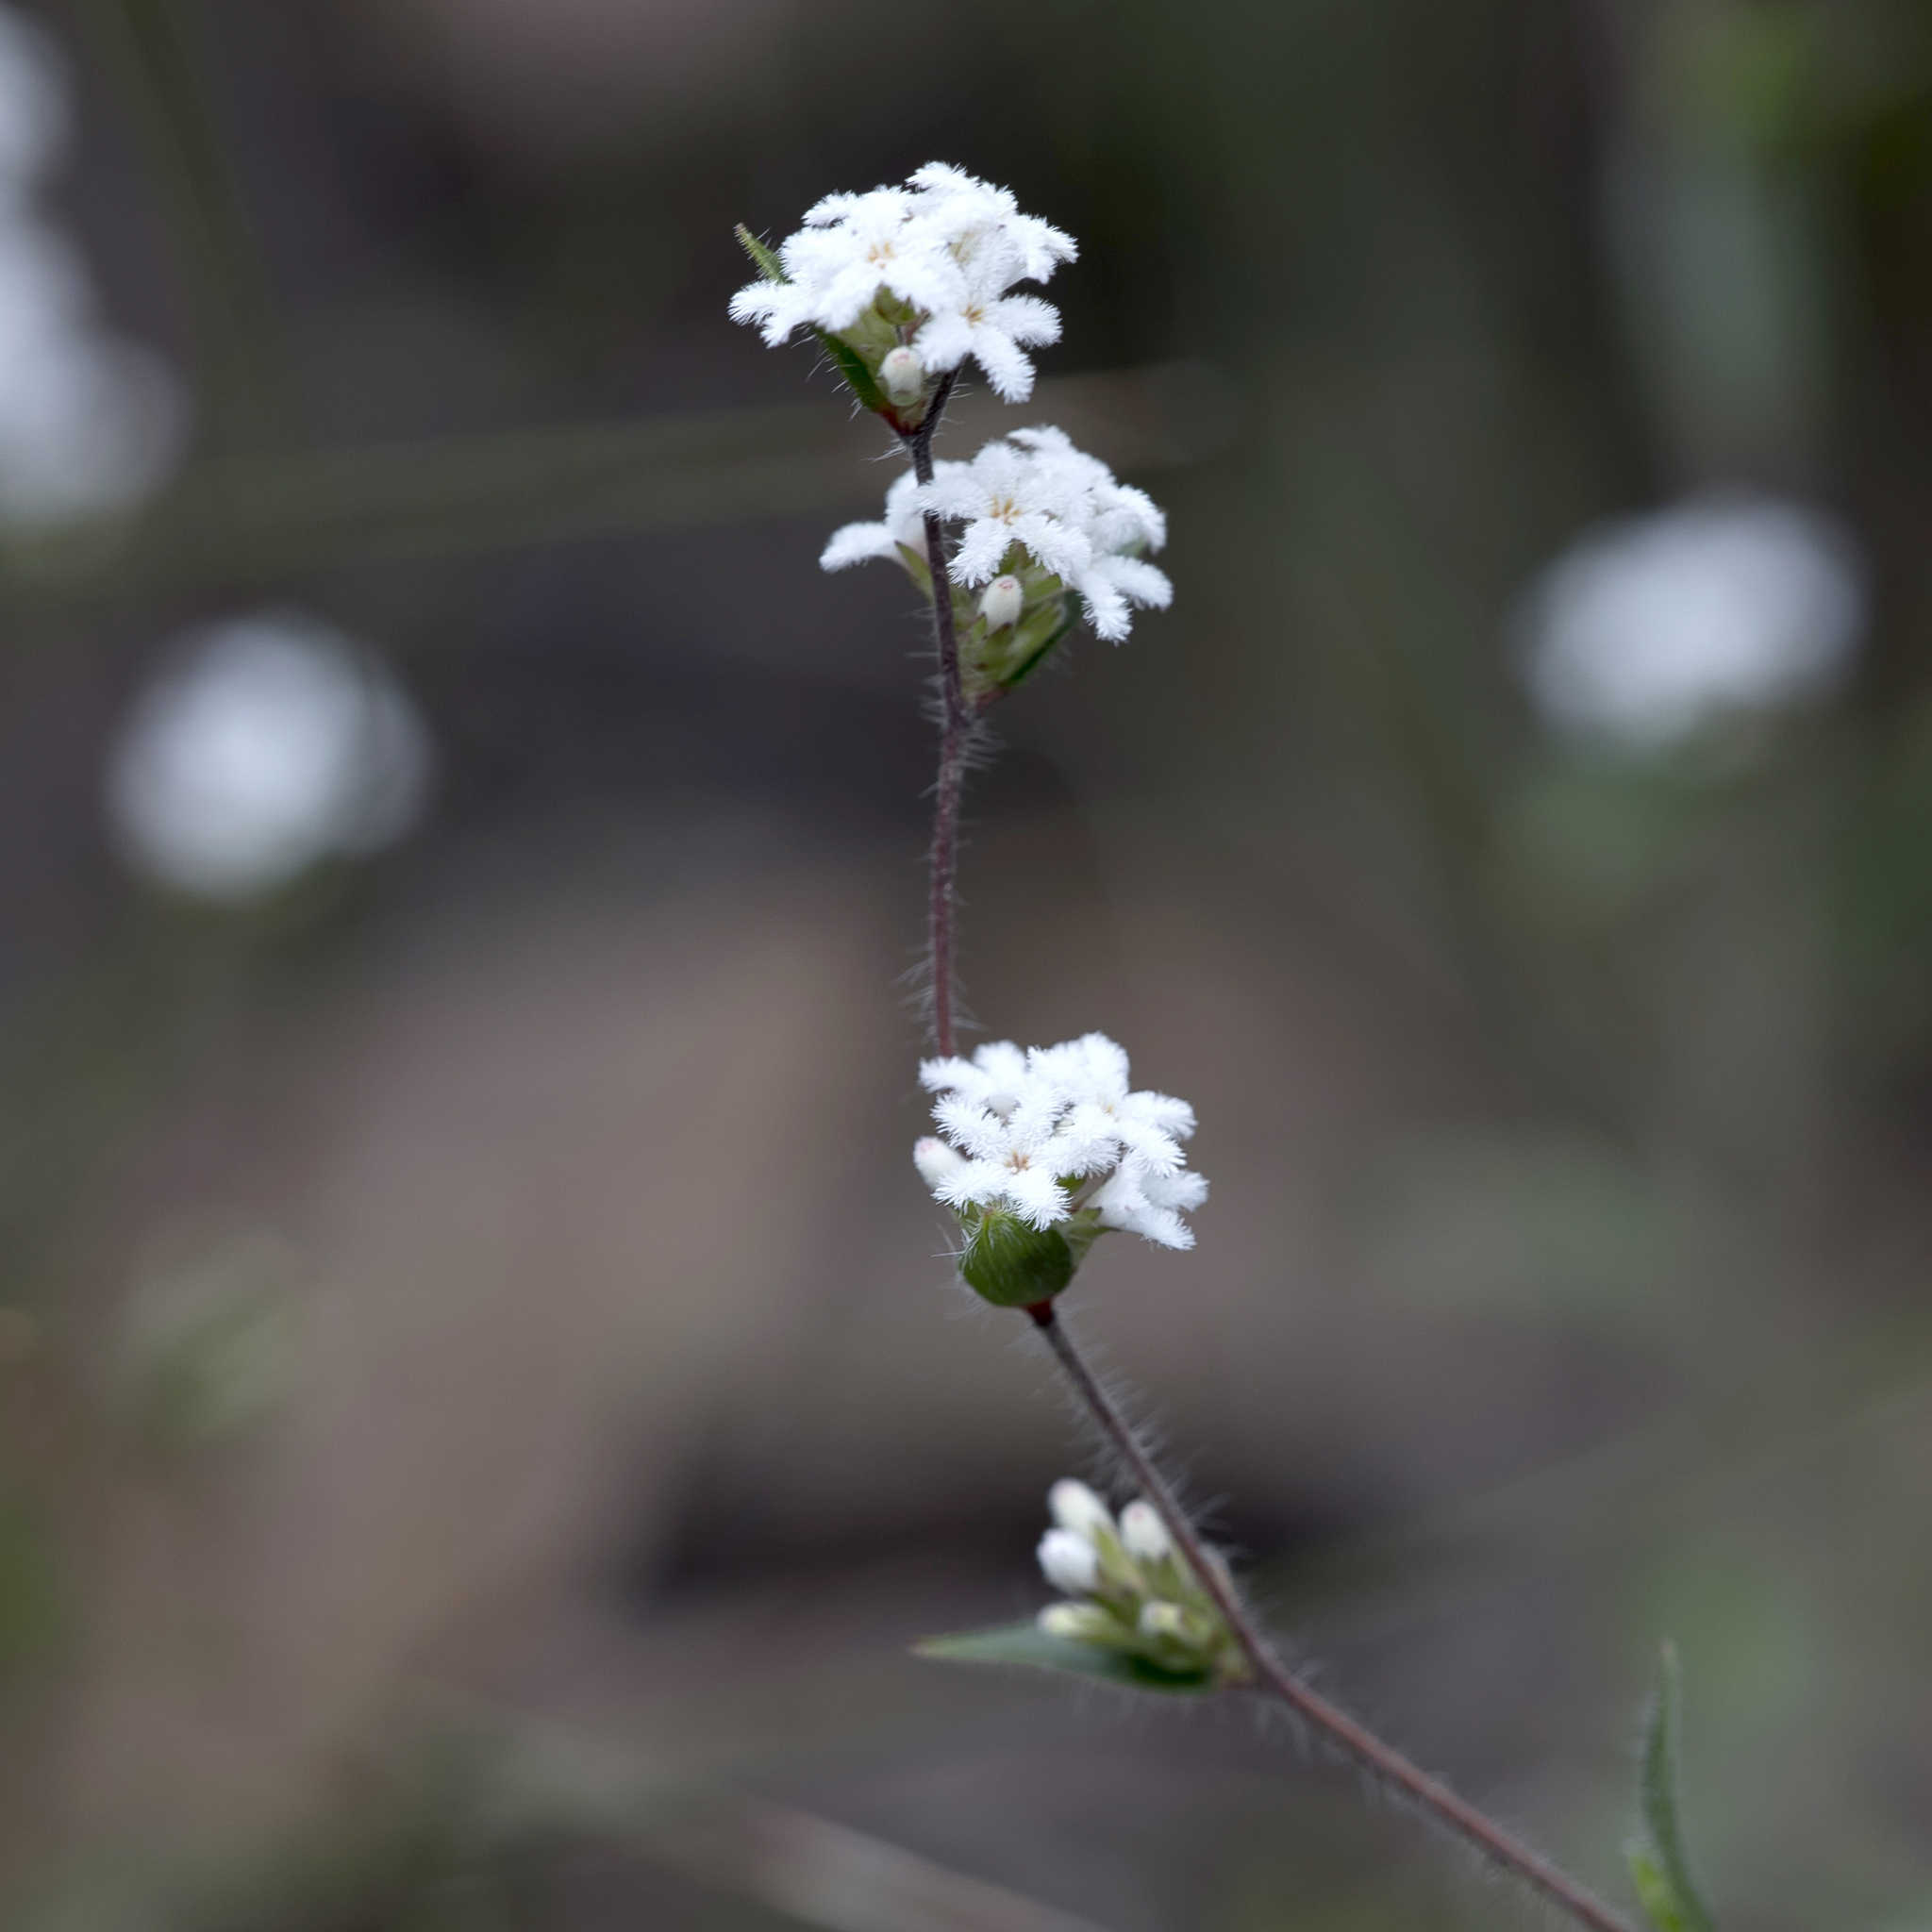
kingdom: Plantae
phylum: Tracheophyta
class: Magnoliopsida
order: Ericales
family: Ericaceae
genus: Leucopogon
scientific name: Leucopogon concurvus
